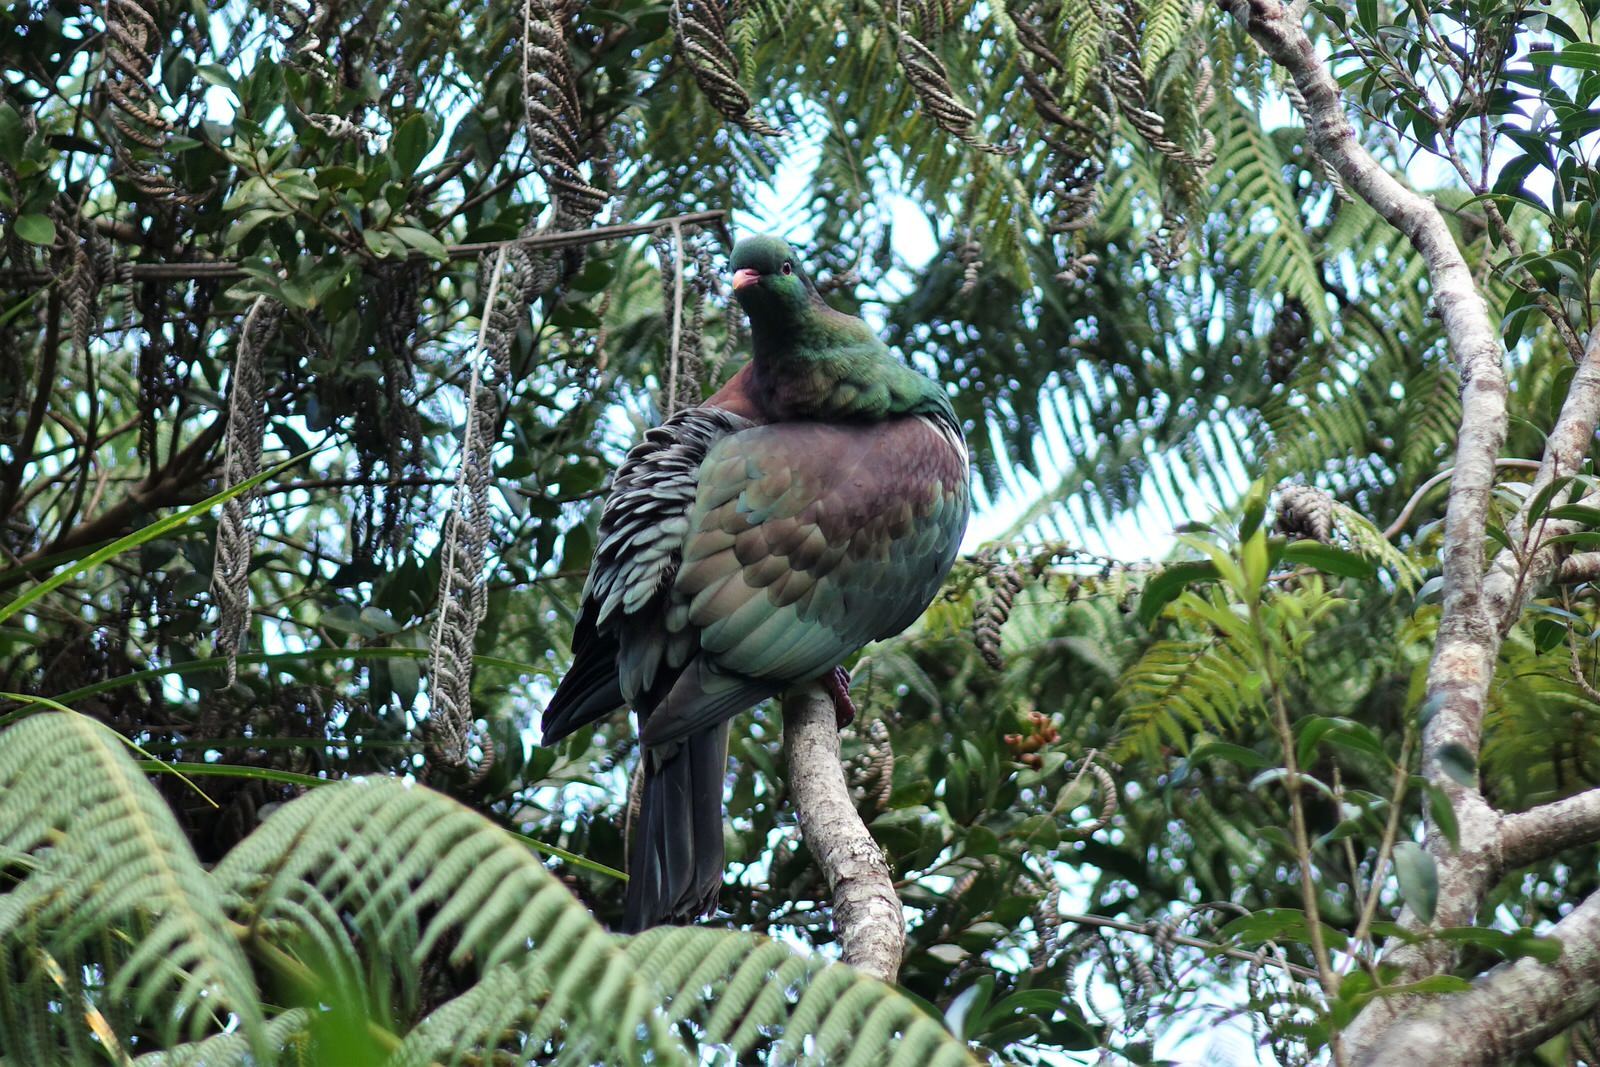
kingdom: Animalia
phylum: Chordata
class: Aves
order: Columbiformes
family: Columbidae
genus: Hemiphaga
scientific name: Hemiphaga novaeseelandiae
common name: New zealand pigeon
